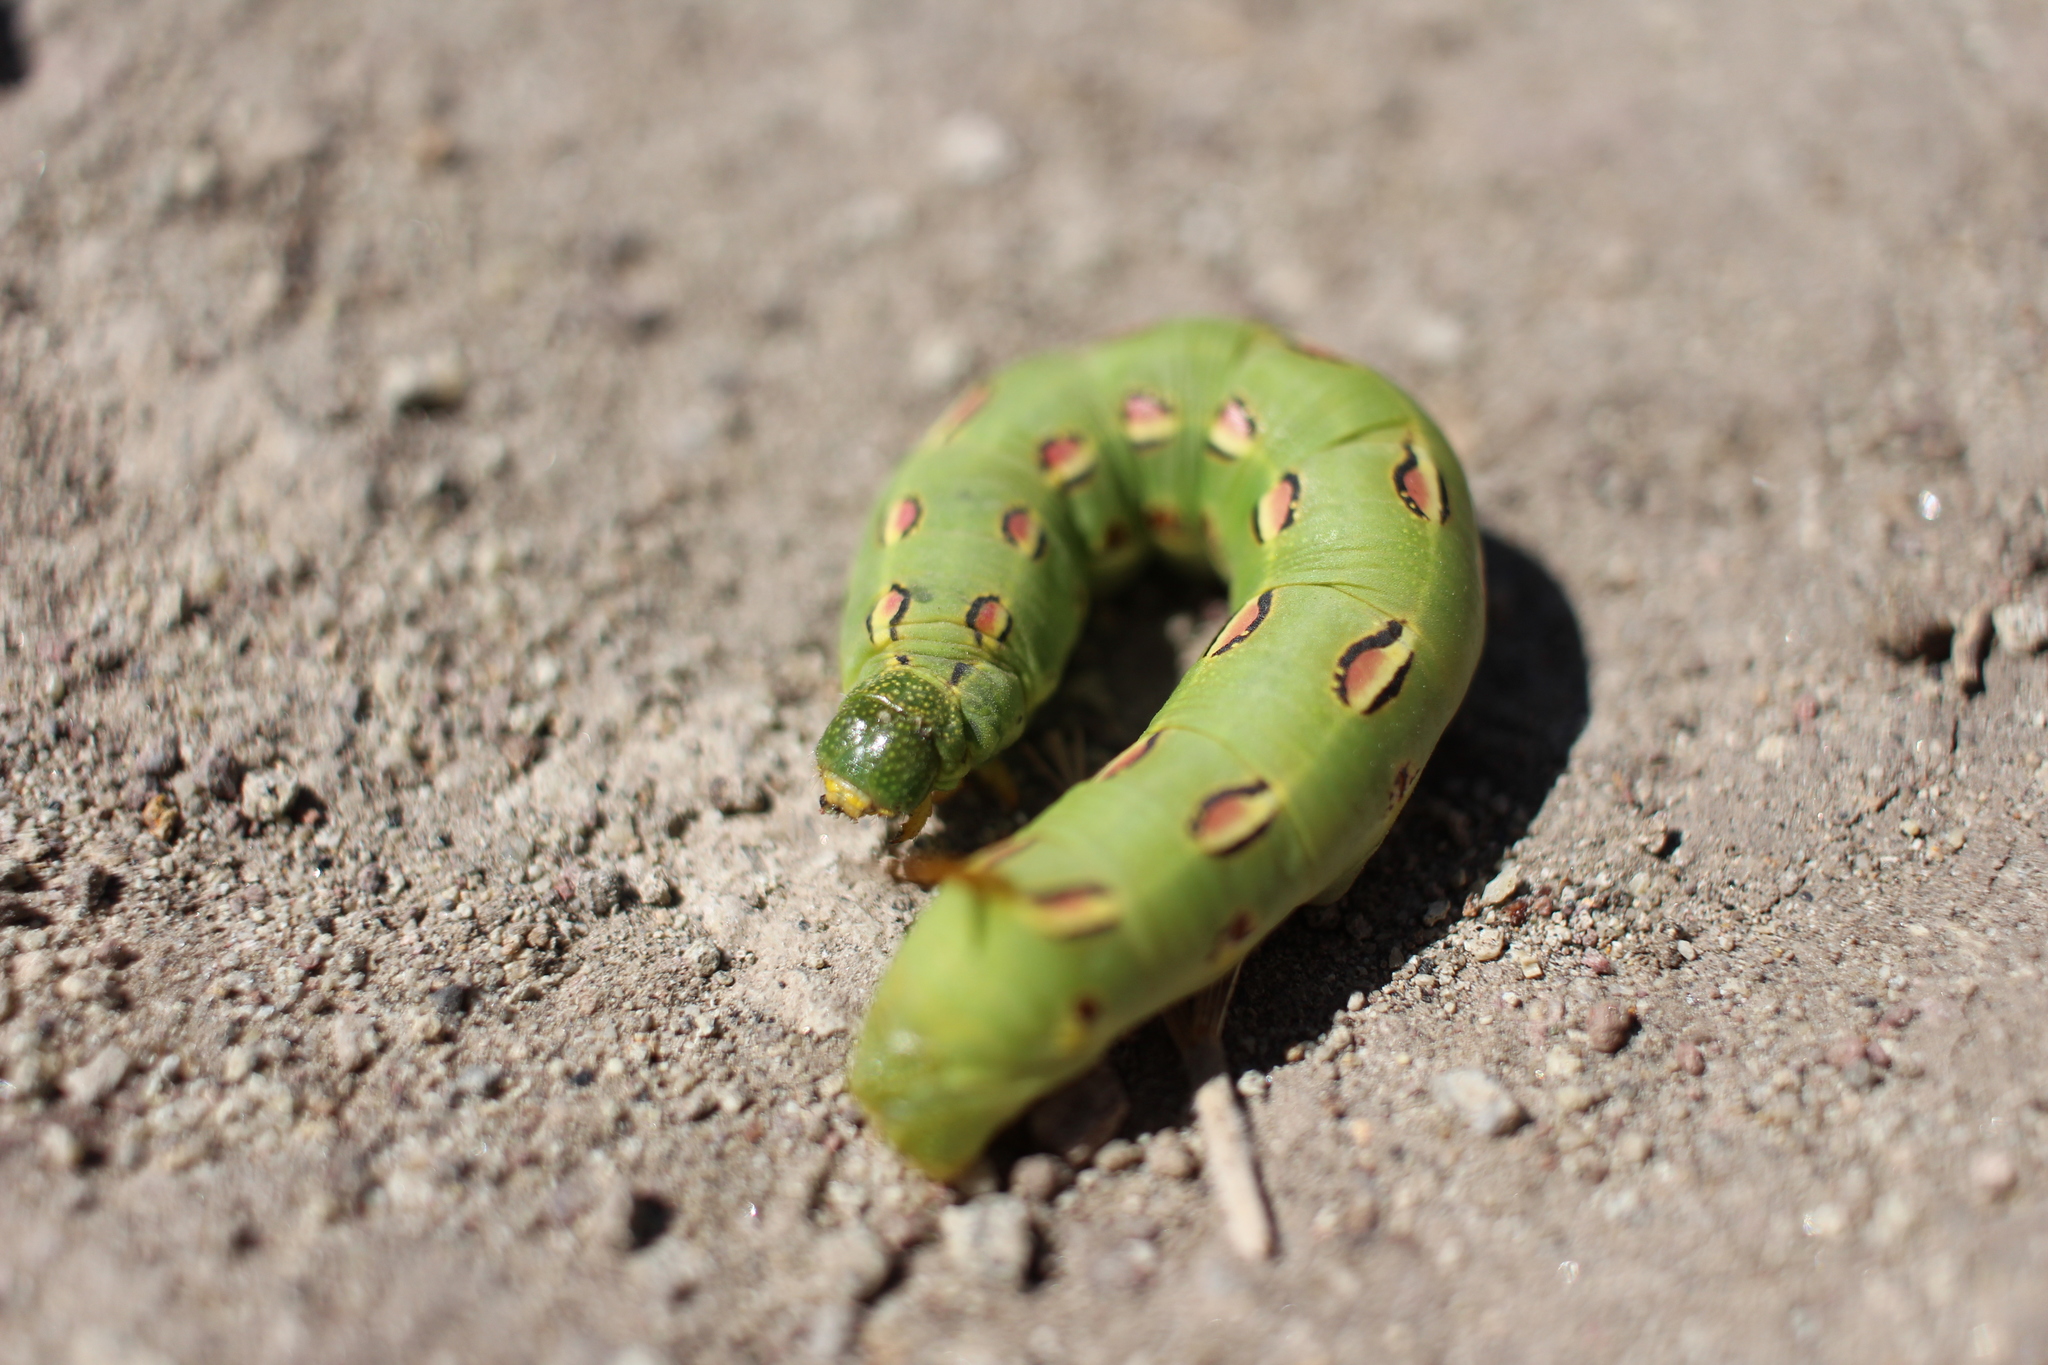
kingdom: Animalia
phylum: Arthropoda
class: Insecta
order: Lepidoptera
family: Sphingidae
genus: Hyles
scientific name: Hyles lineata
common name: White-lined sphinx
